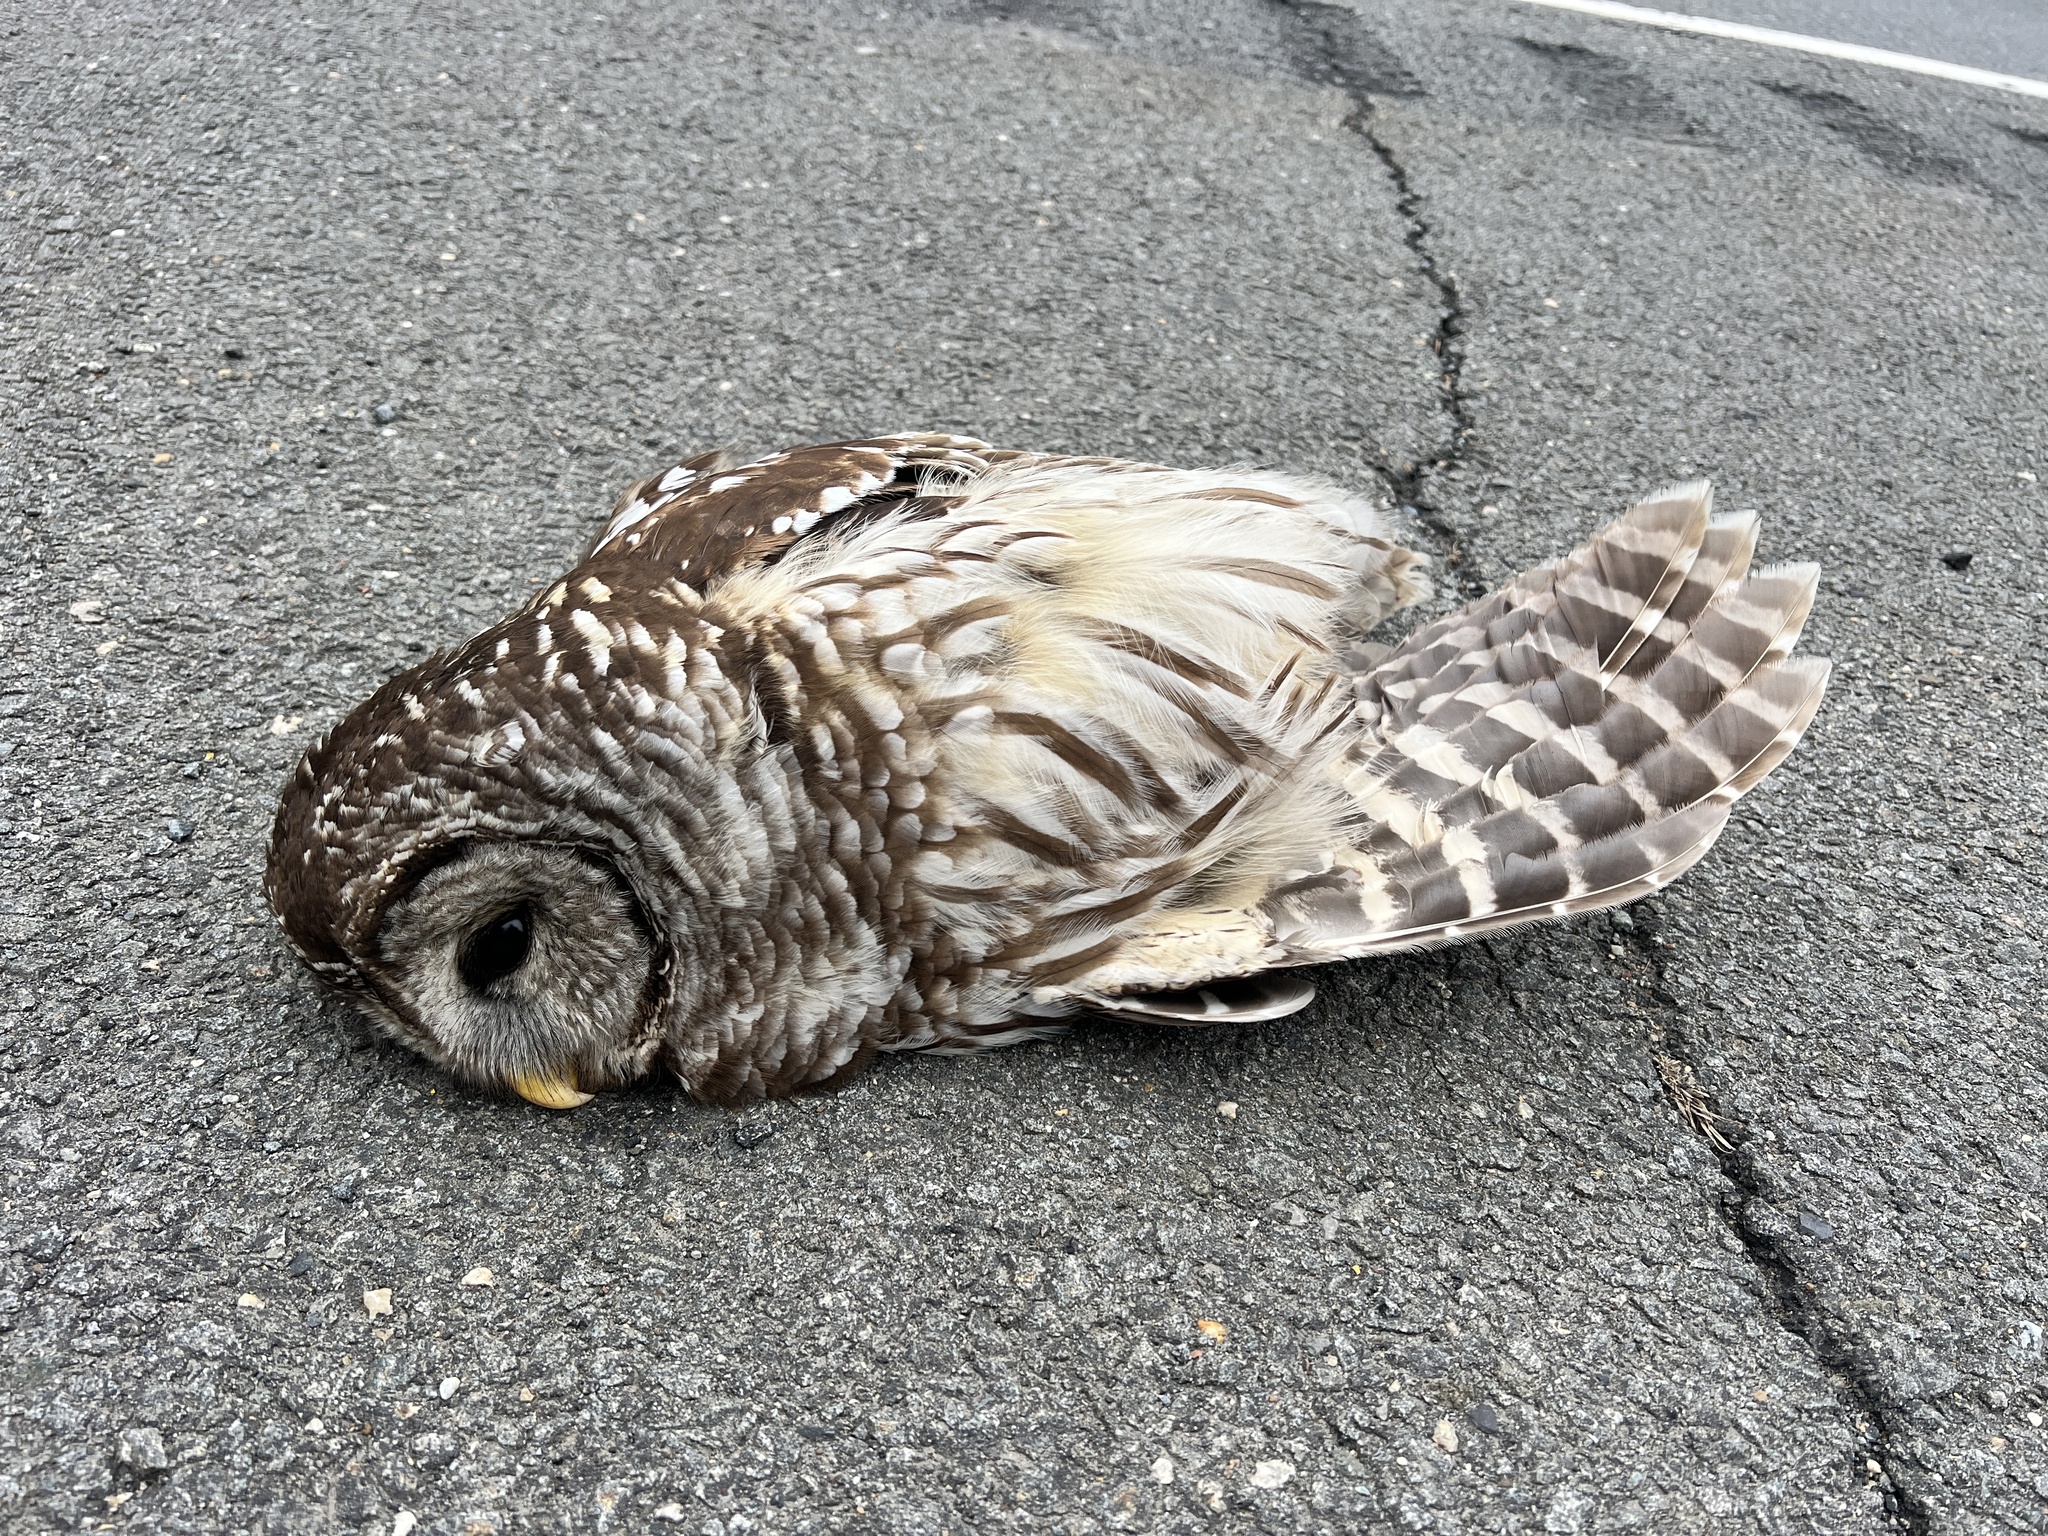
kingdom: Animalia
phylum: Chordata
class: Aves
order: Strigiformes
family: Strigidae
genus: Strix
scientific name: Strix varia
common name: Barred owl
